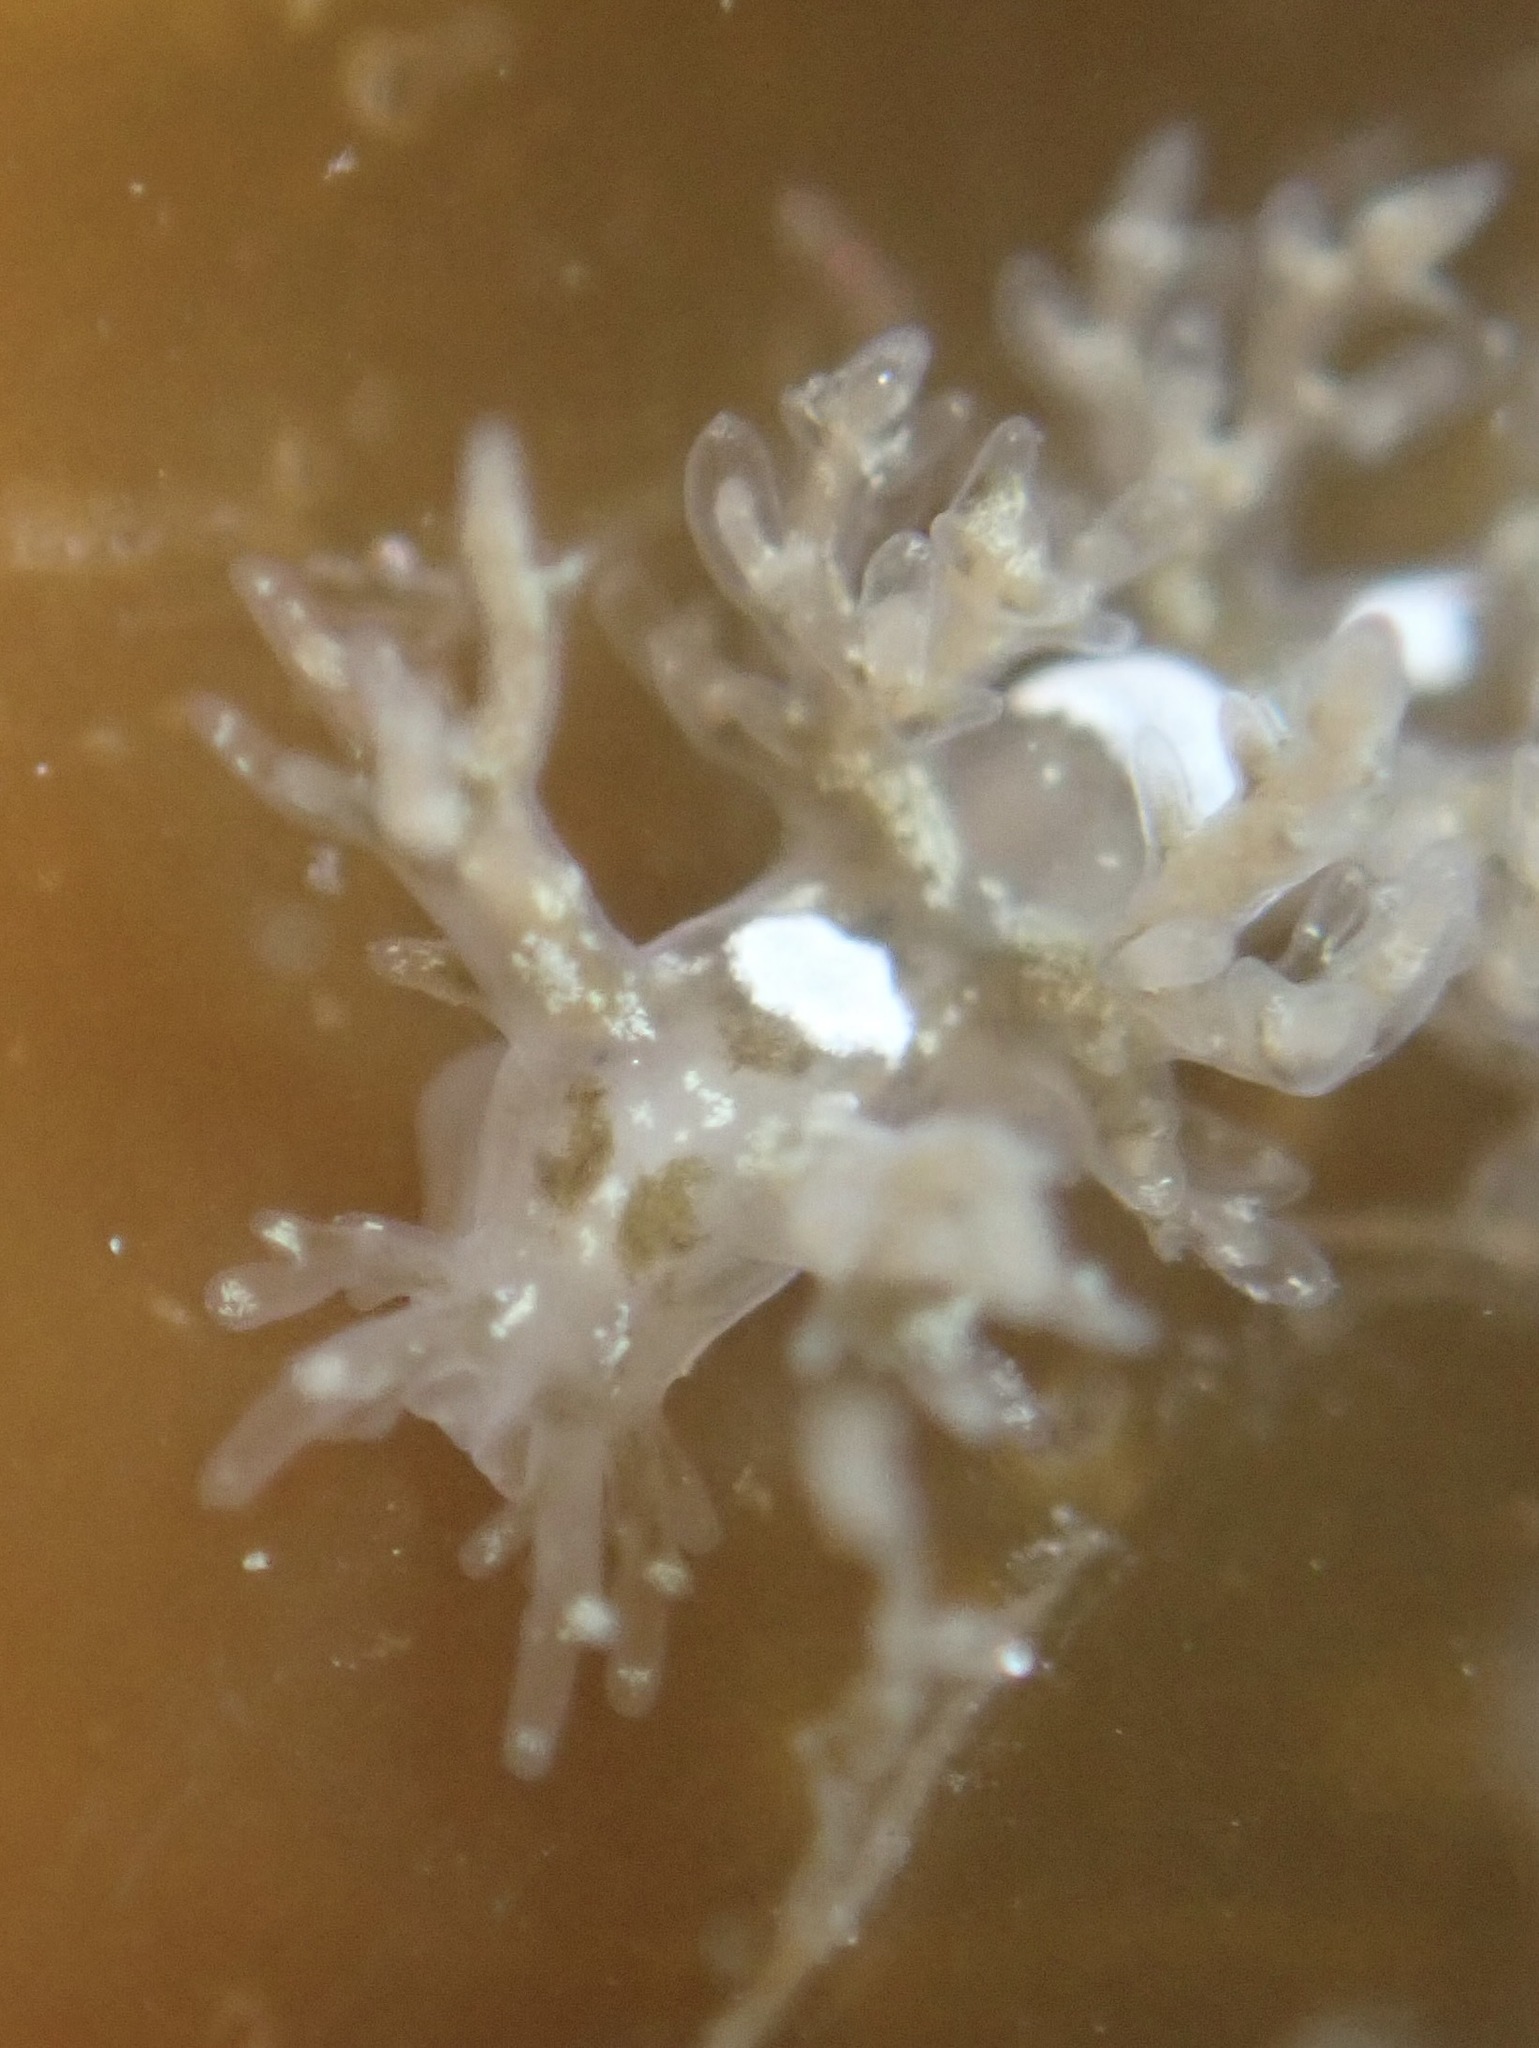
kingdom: Animalia
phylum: Mollusca
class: Gastropoda
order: Nudibranchia
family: Dendronotidae
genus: Dendronotus
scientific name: Dendronotus venustus
